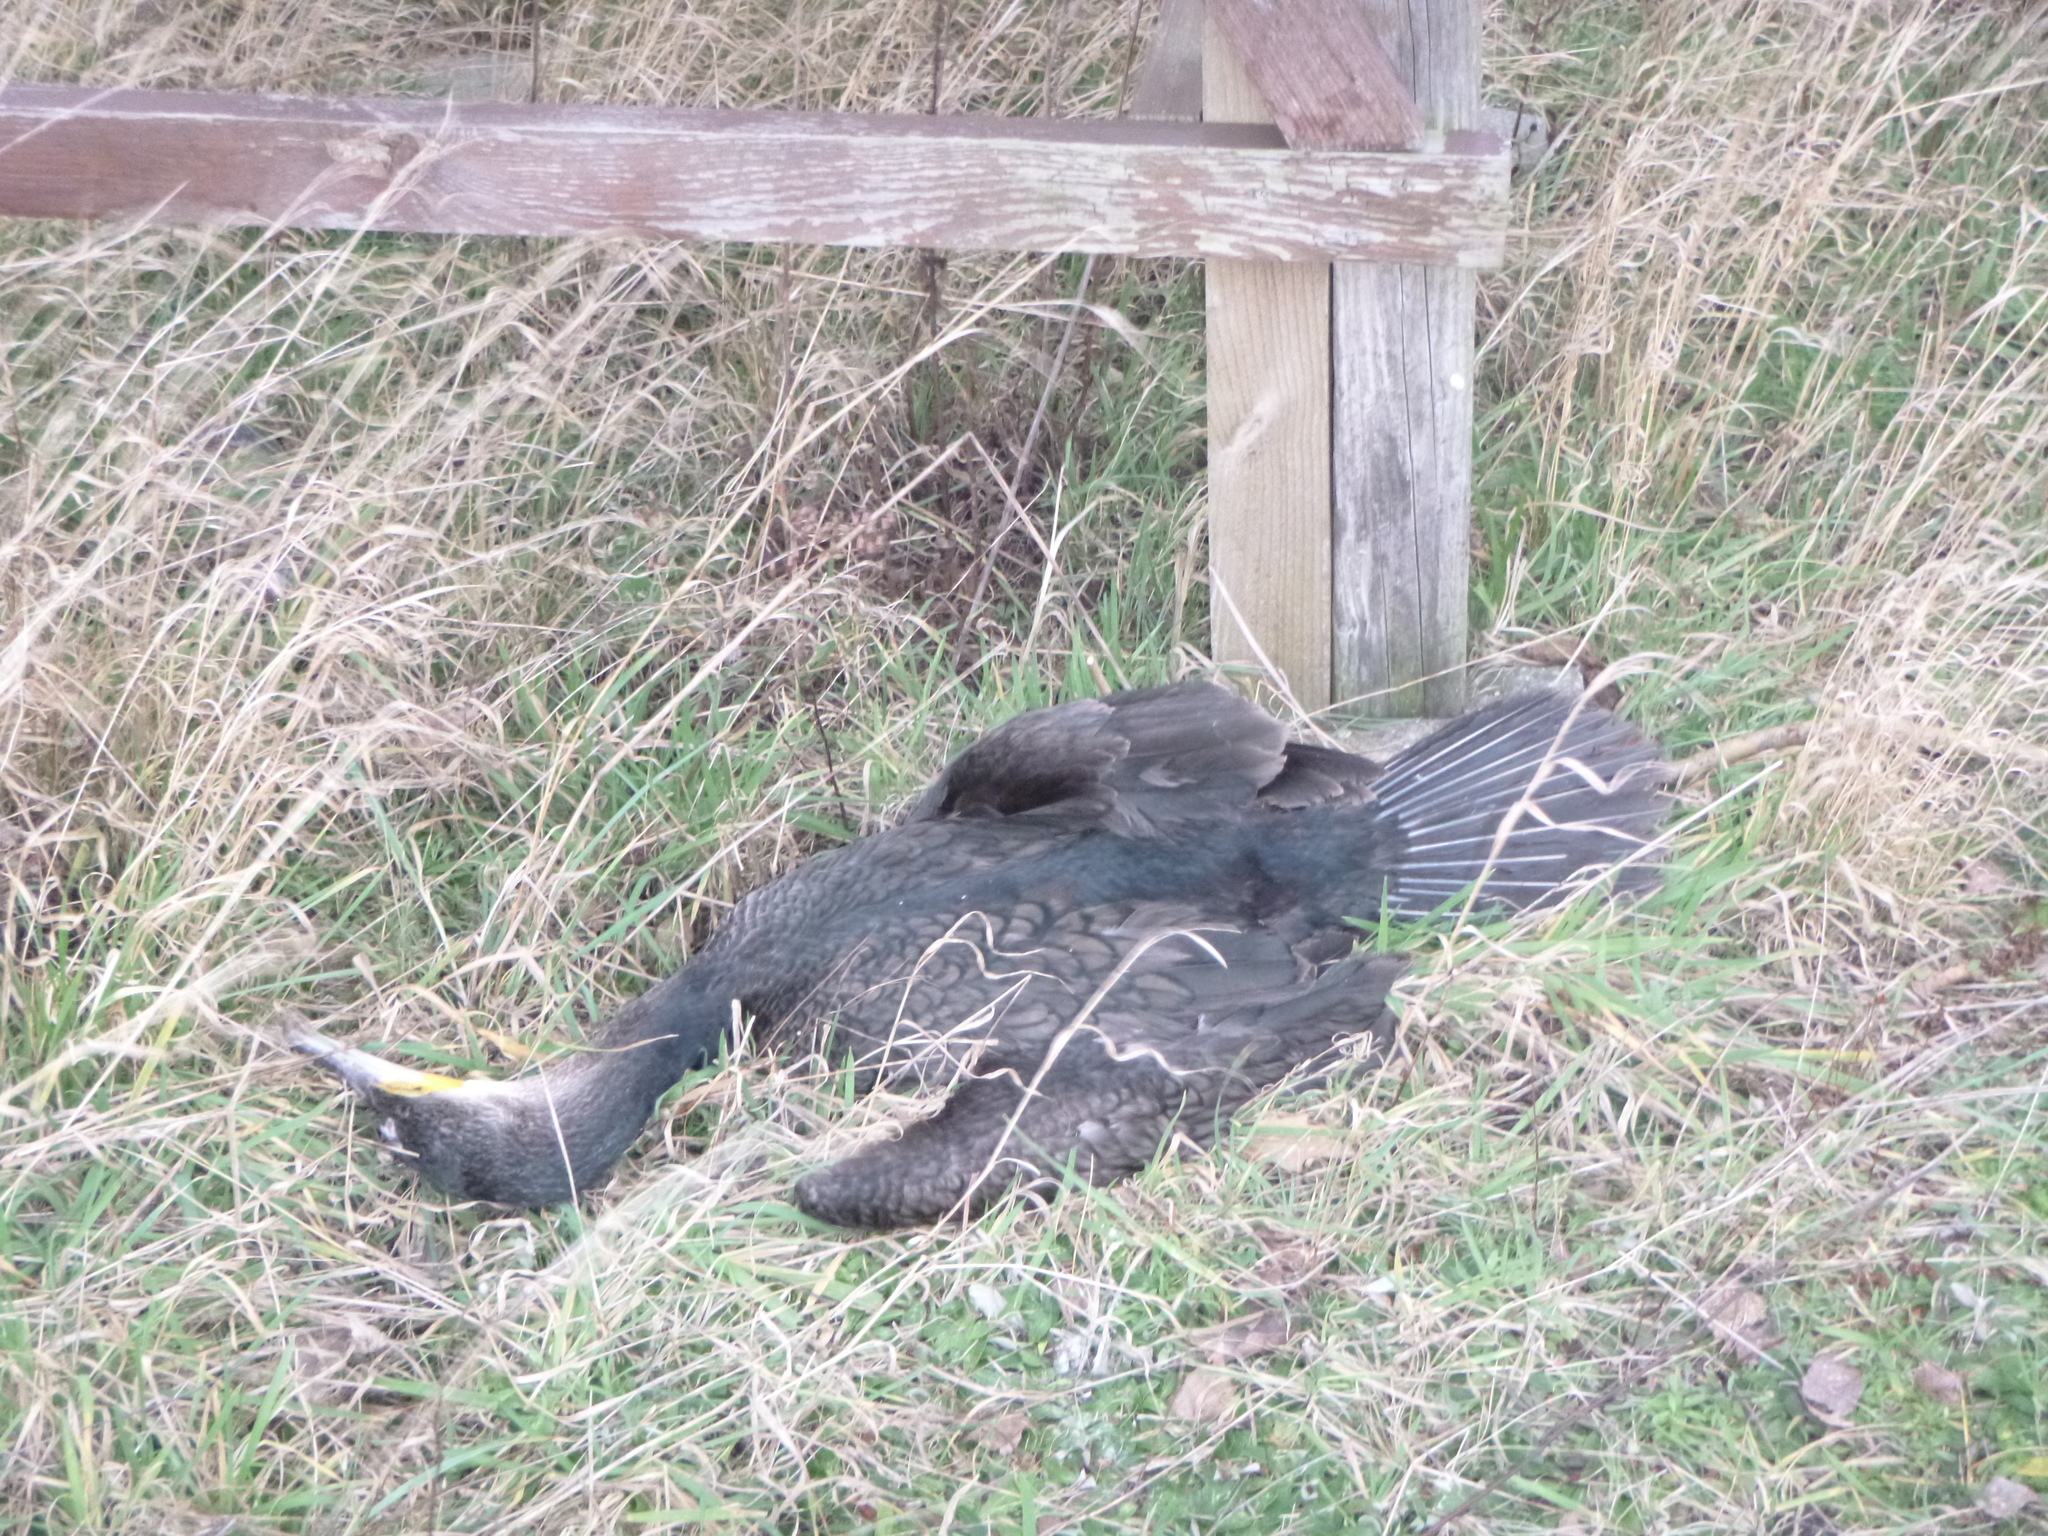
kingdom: Animalia
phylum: Chordata
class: Aves
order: Suliformes
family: Phalacrocoracidae
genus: Phalacrocorax
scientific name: Phalacrocorax carbo
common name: Great cormorant
